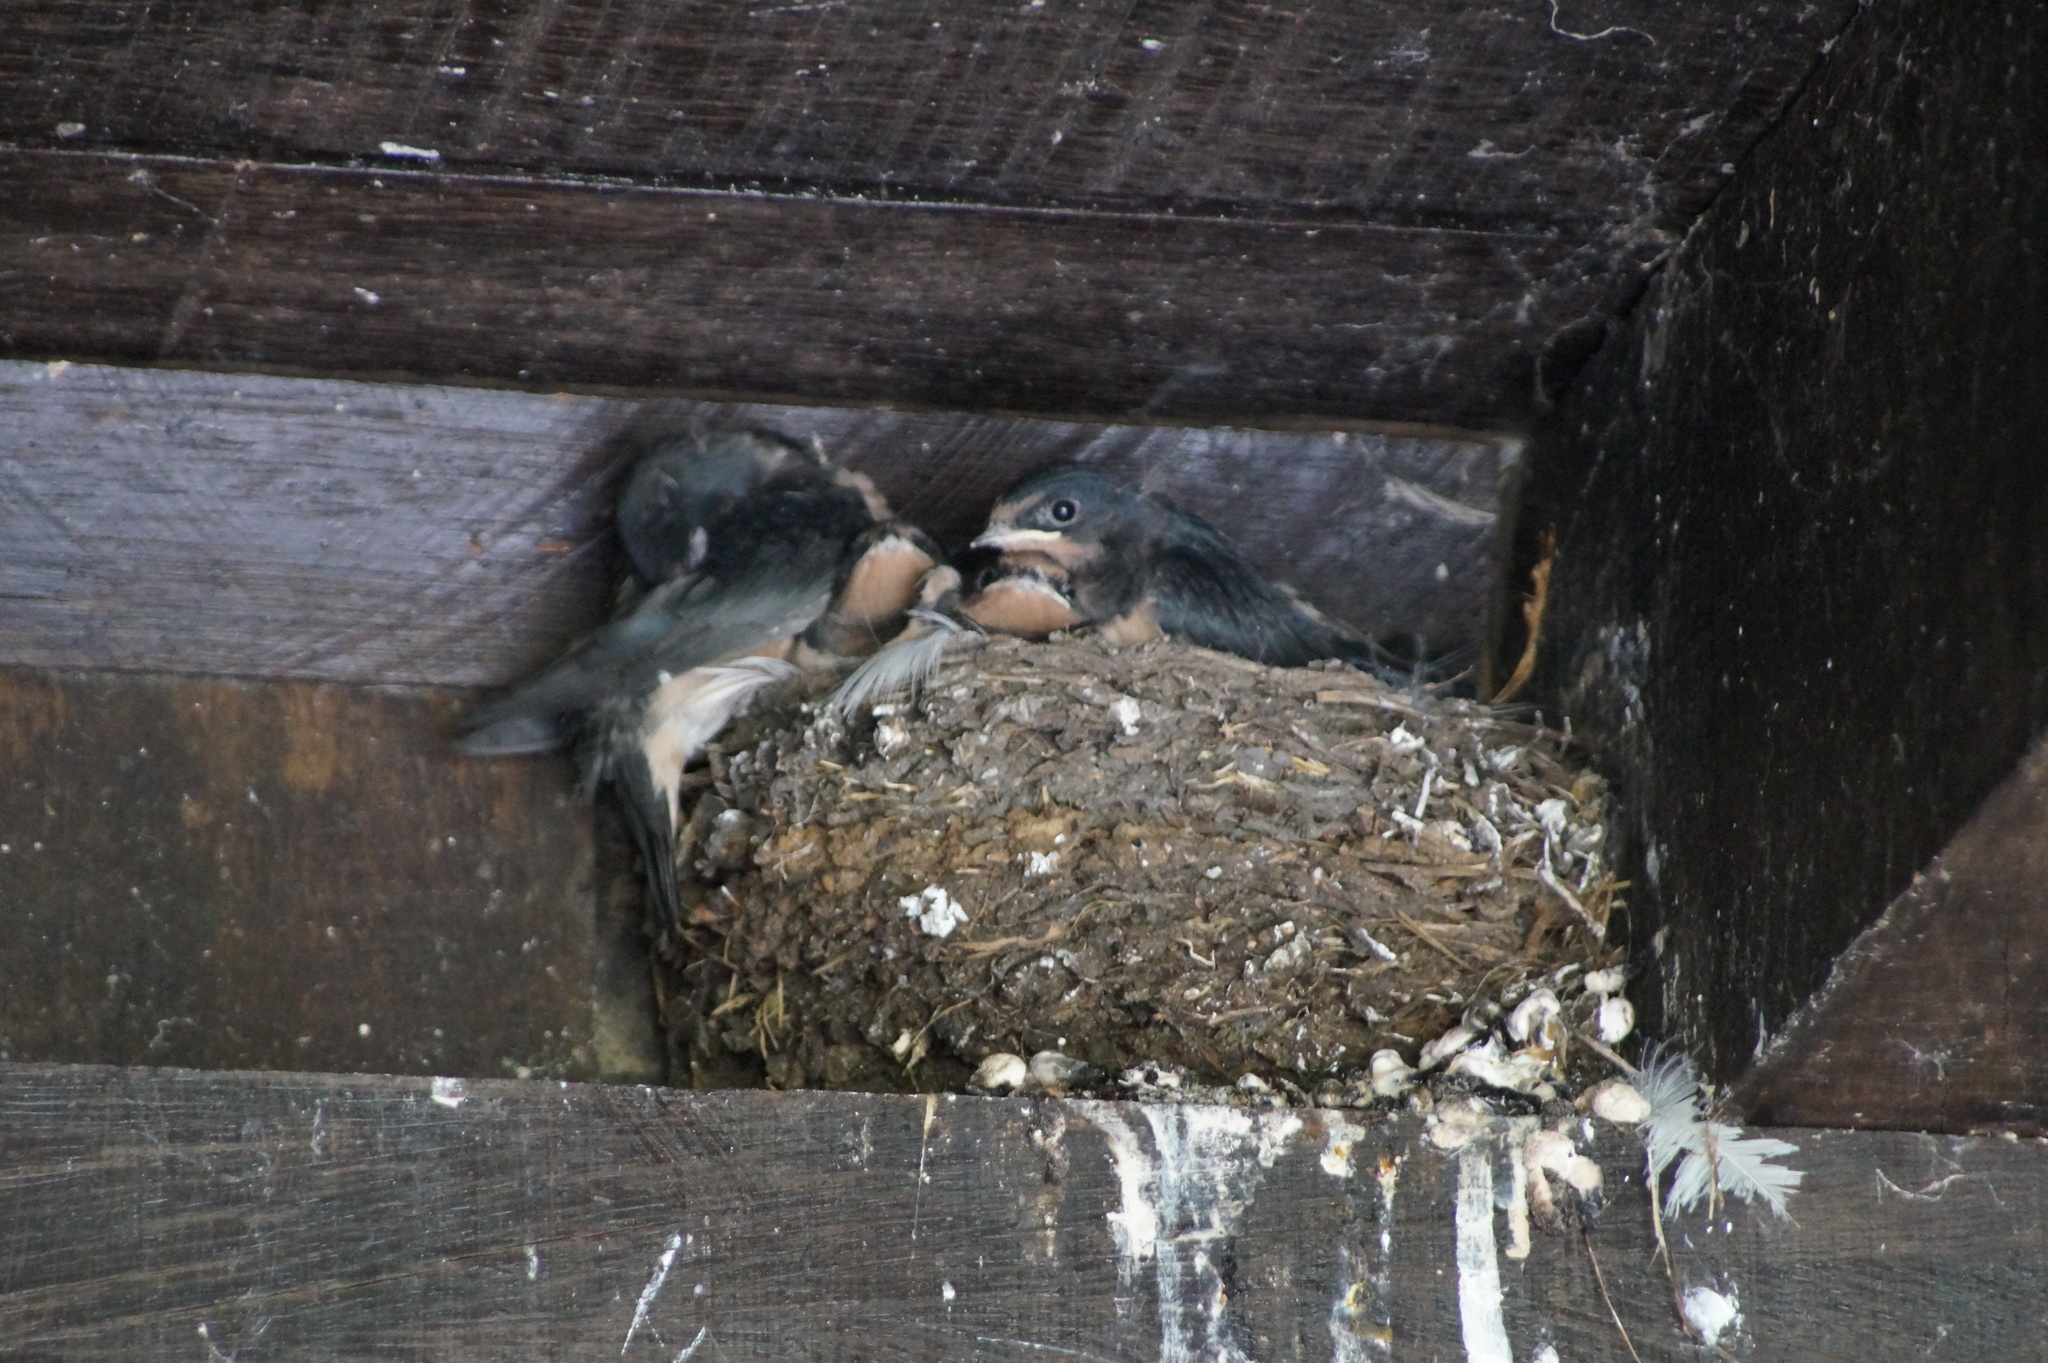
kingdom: Animalia
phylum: Chordata
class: Aves
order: Passeriformes
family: Hirundinidae
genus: Hirundo
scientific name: Hirundo rustica
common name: Barn swallow
